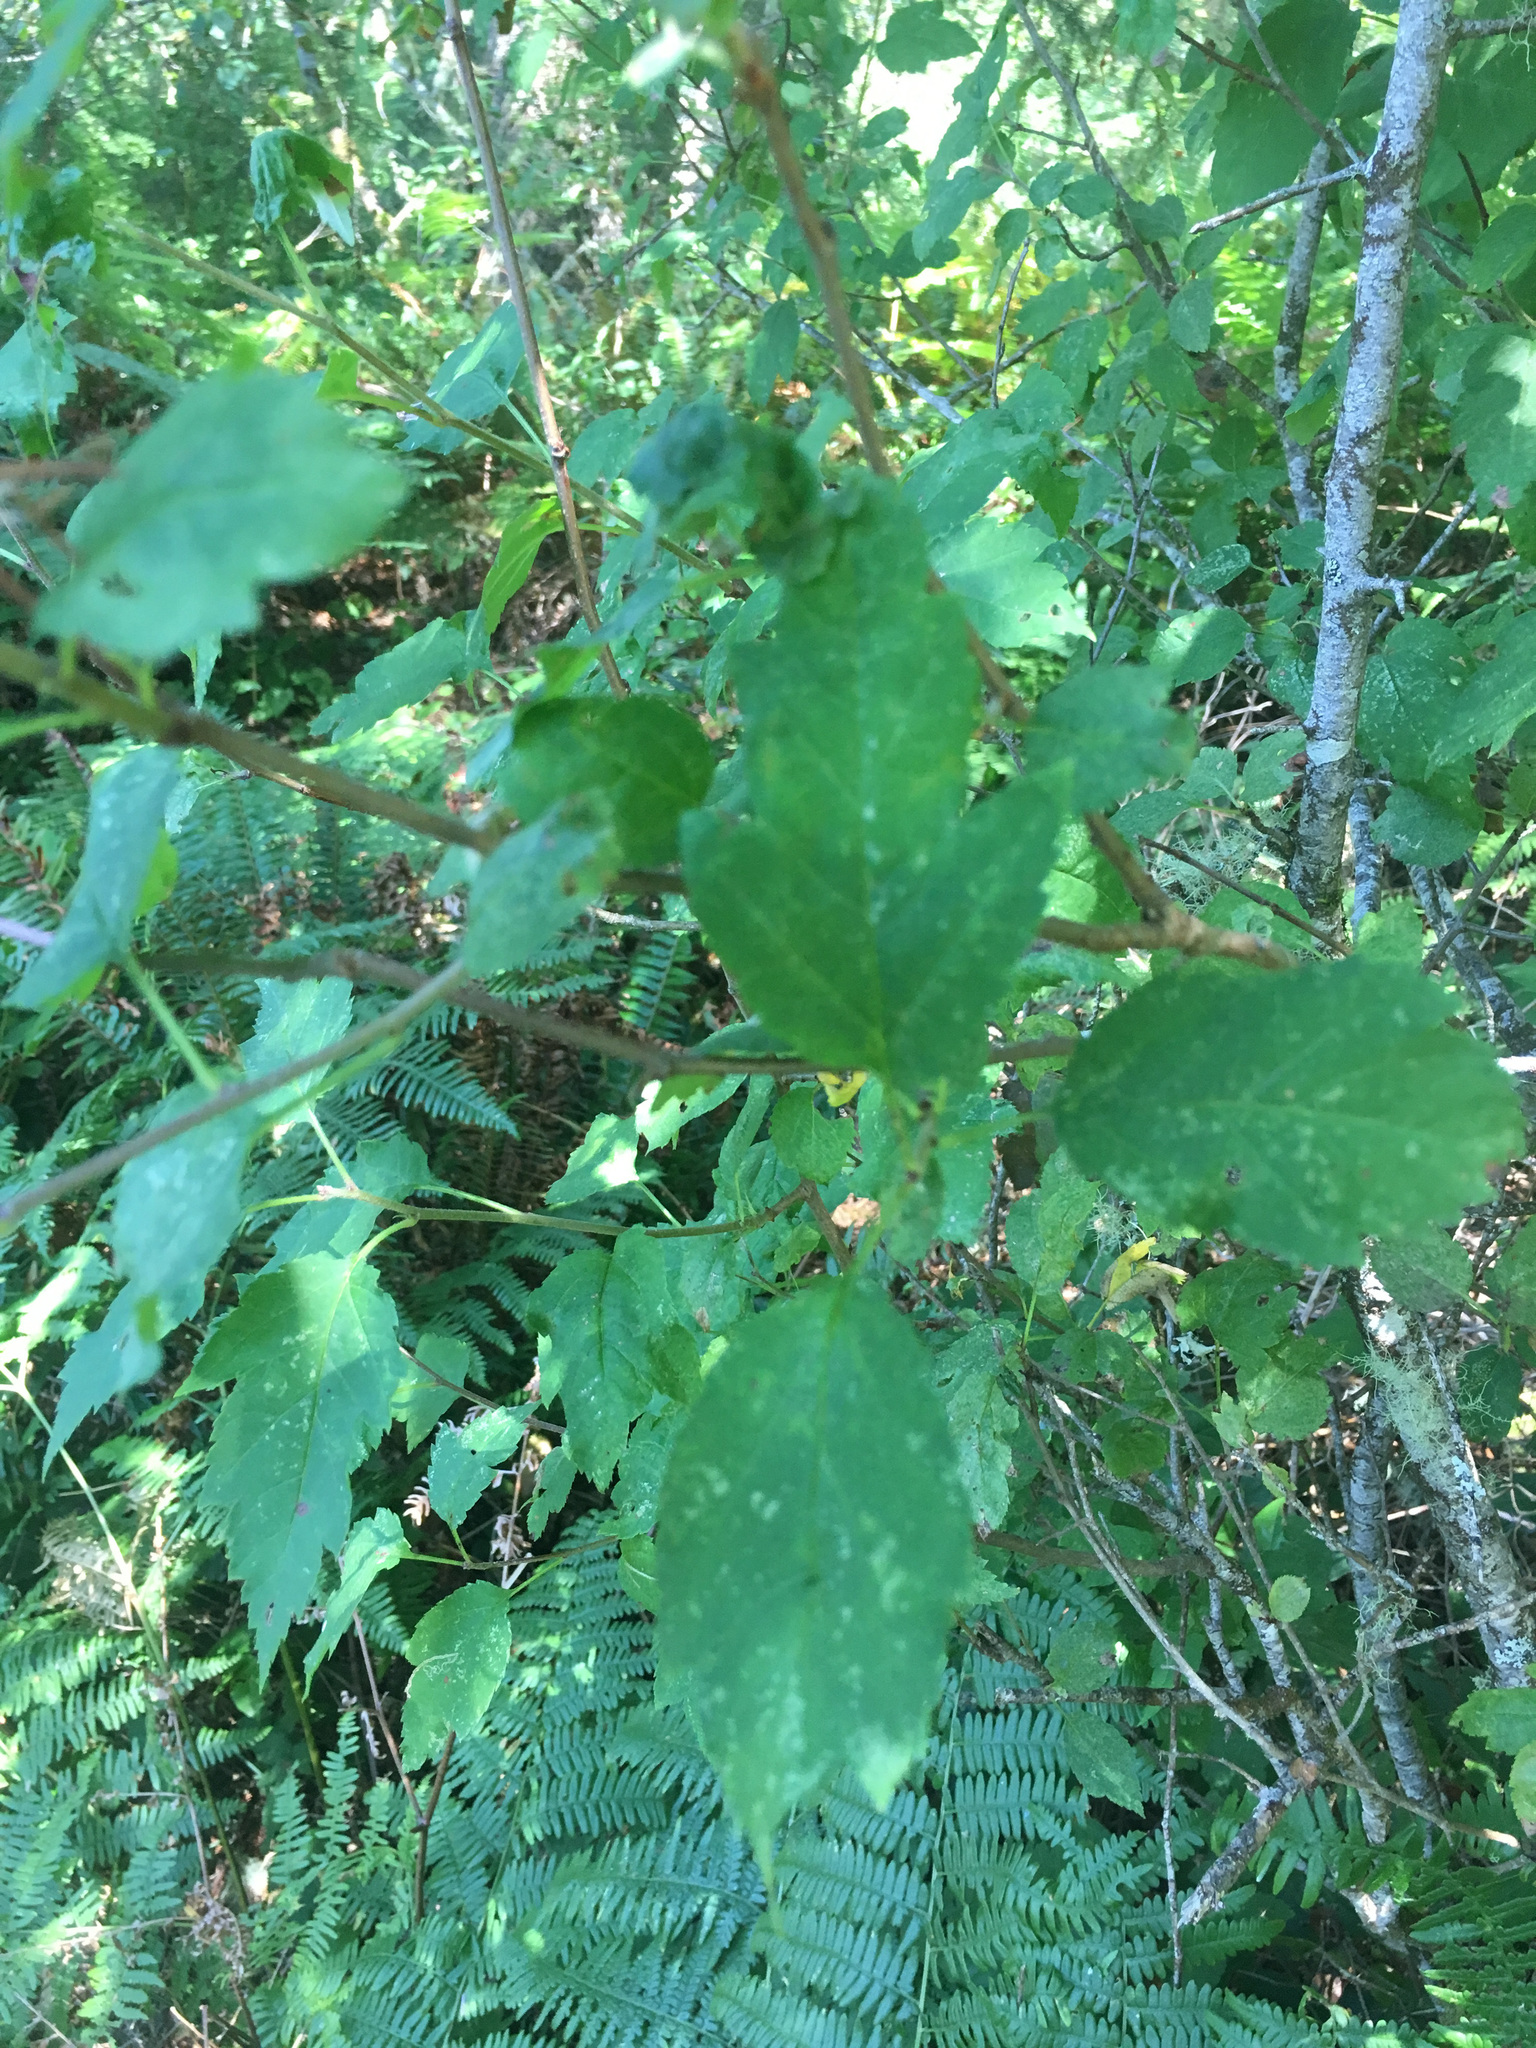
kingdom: Plantae
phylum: Tracheophyta
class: Magnoliopsida
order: Rosales
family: Rosaceae
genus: Malus
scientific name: Malus fusca
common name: Oregon crab apple
